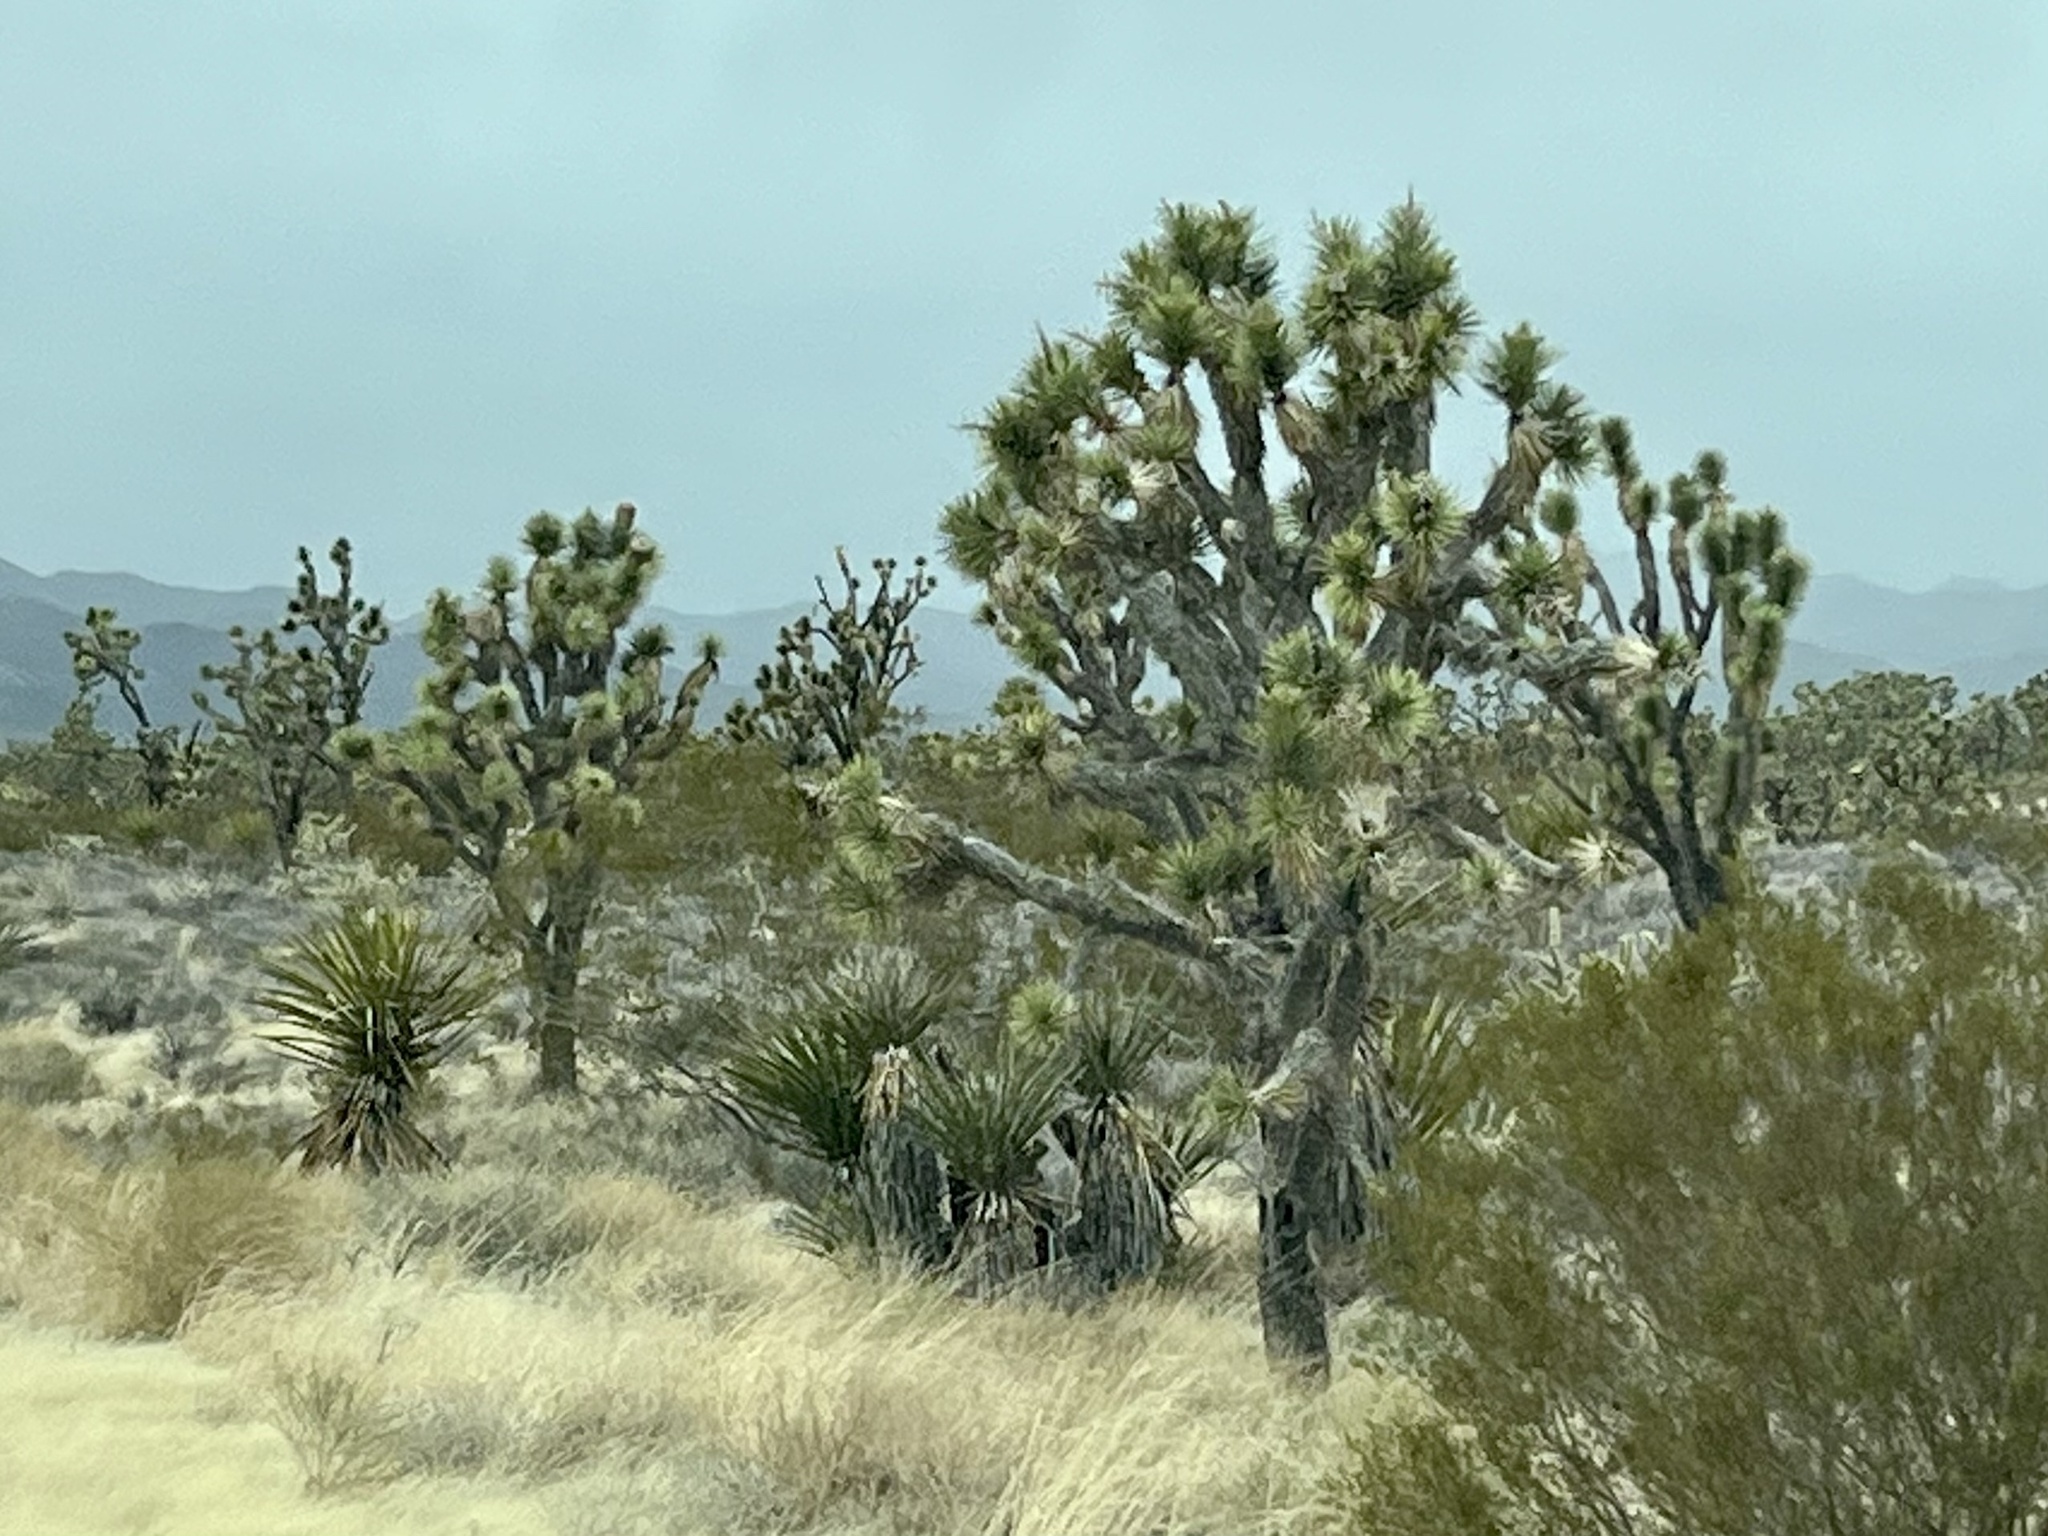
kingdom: Plantae
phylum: Tracheophyta
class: Liliopsida
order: Asparagales
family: Asparagaceae
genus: Yucca
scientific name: Yucca brevifolia
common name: Joshua tree
